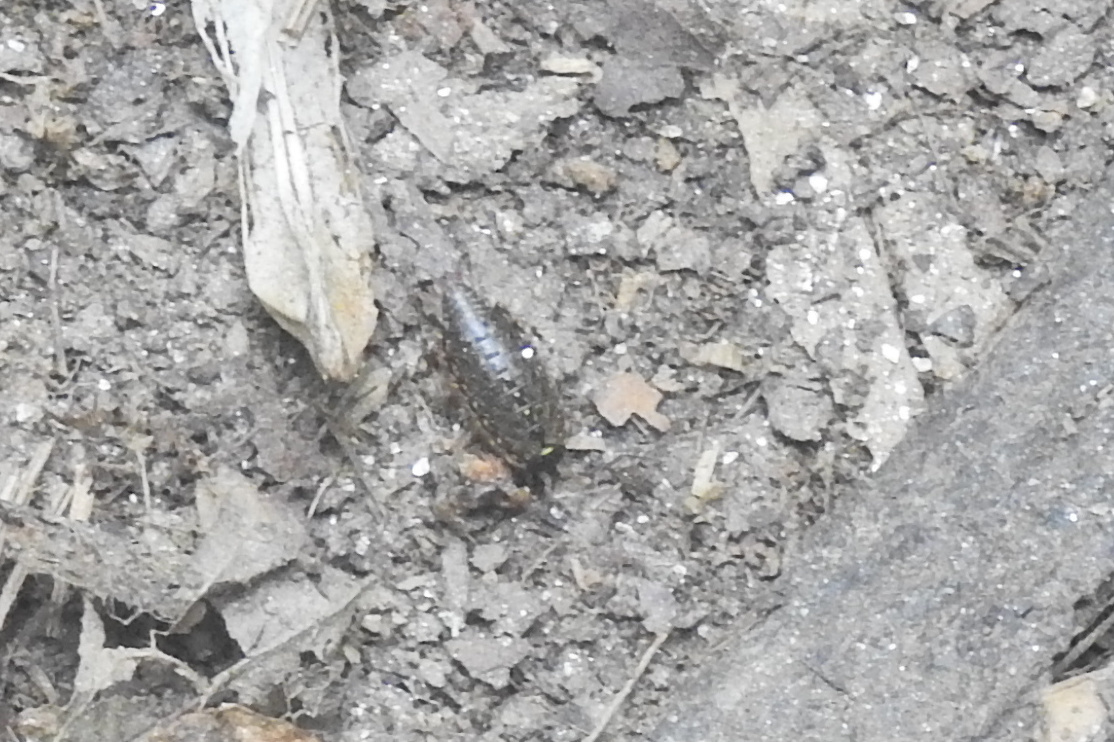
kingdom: Animalia
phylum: Arthropoda
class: Malacostraca
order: Isopoda
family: Philosciidae
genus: Philoscia
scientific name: Philoscia muscorum
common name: Common striped woodlouse
